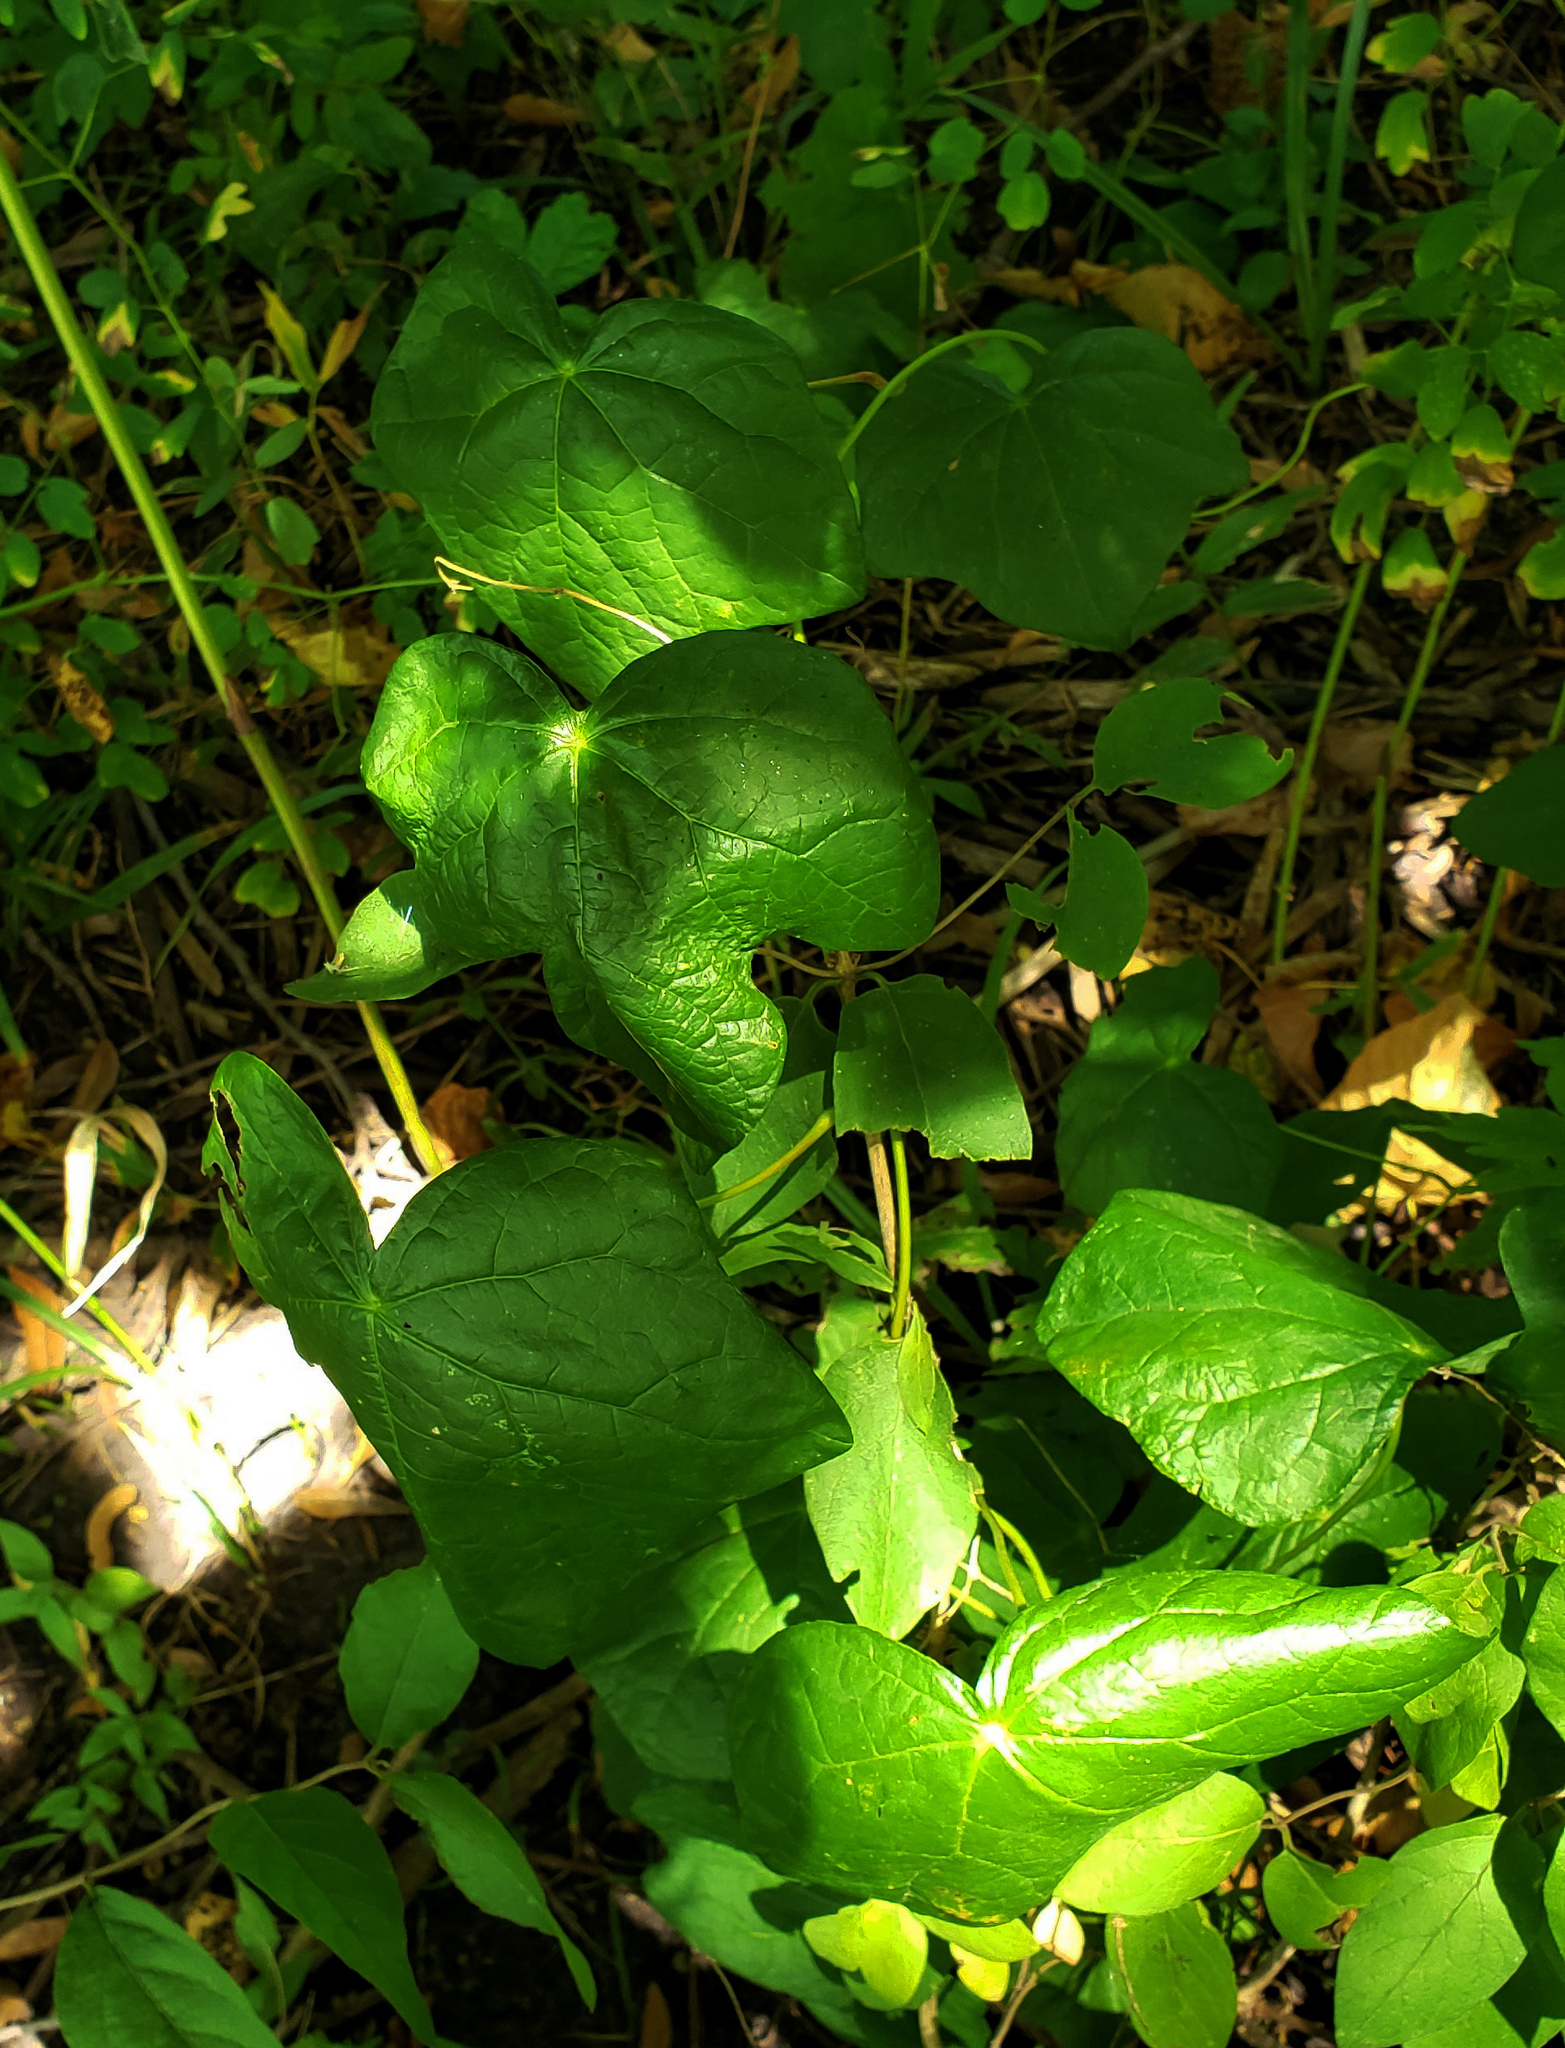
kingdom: Plantae
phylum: Tracheophyta
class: Magnoliopsida
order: Ranunculales
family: Menispermaceae
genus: Menispermum
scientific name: Menispermum canadense
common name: Moonseed
